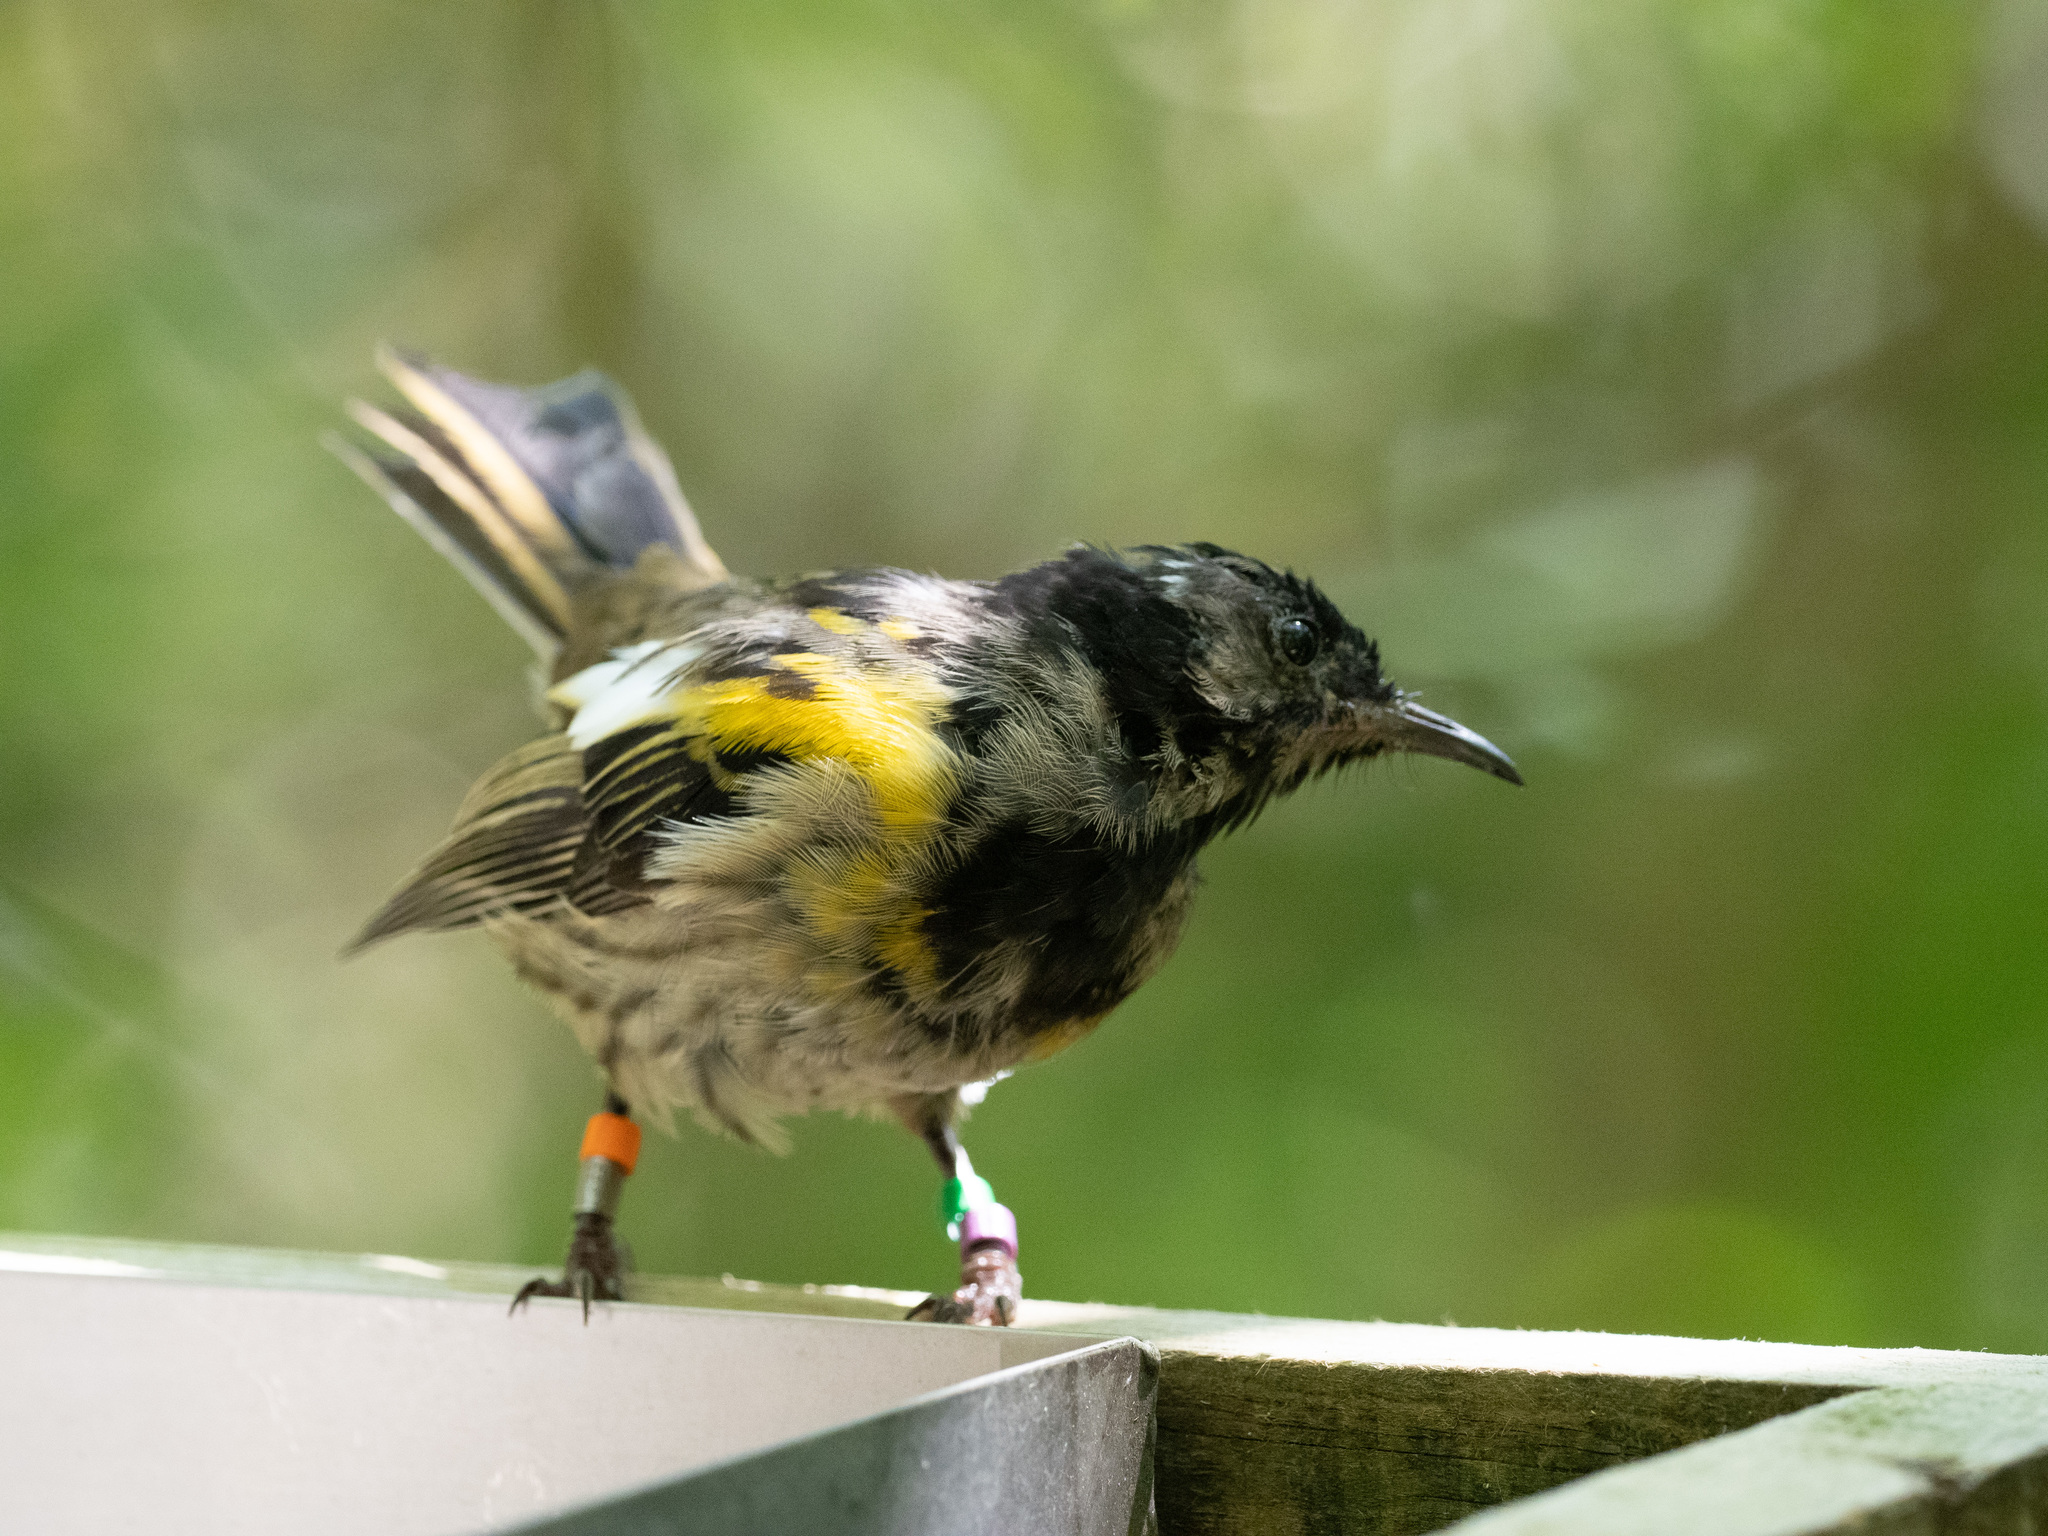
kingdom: Animalia
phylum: Chordata
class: Aves
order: Passeriformes
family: Notiomystidae
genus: Notiomystis
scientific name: Notiomystis cincta
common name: Stitchbird
